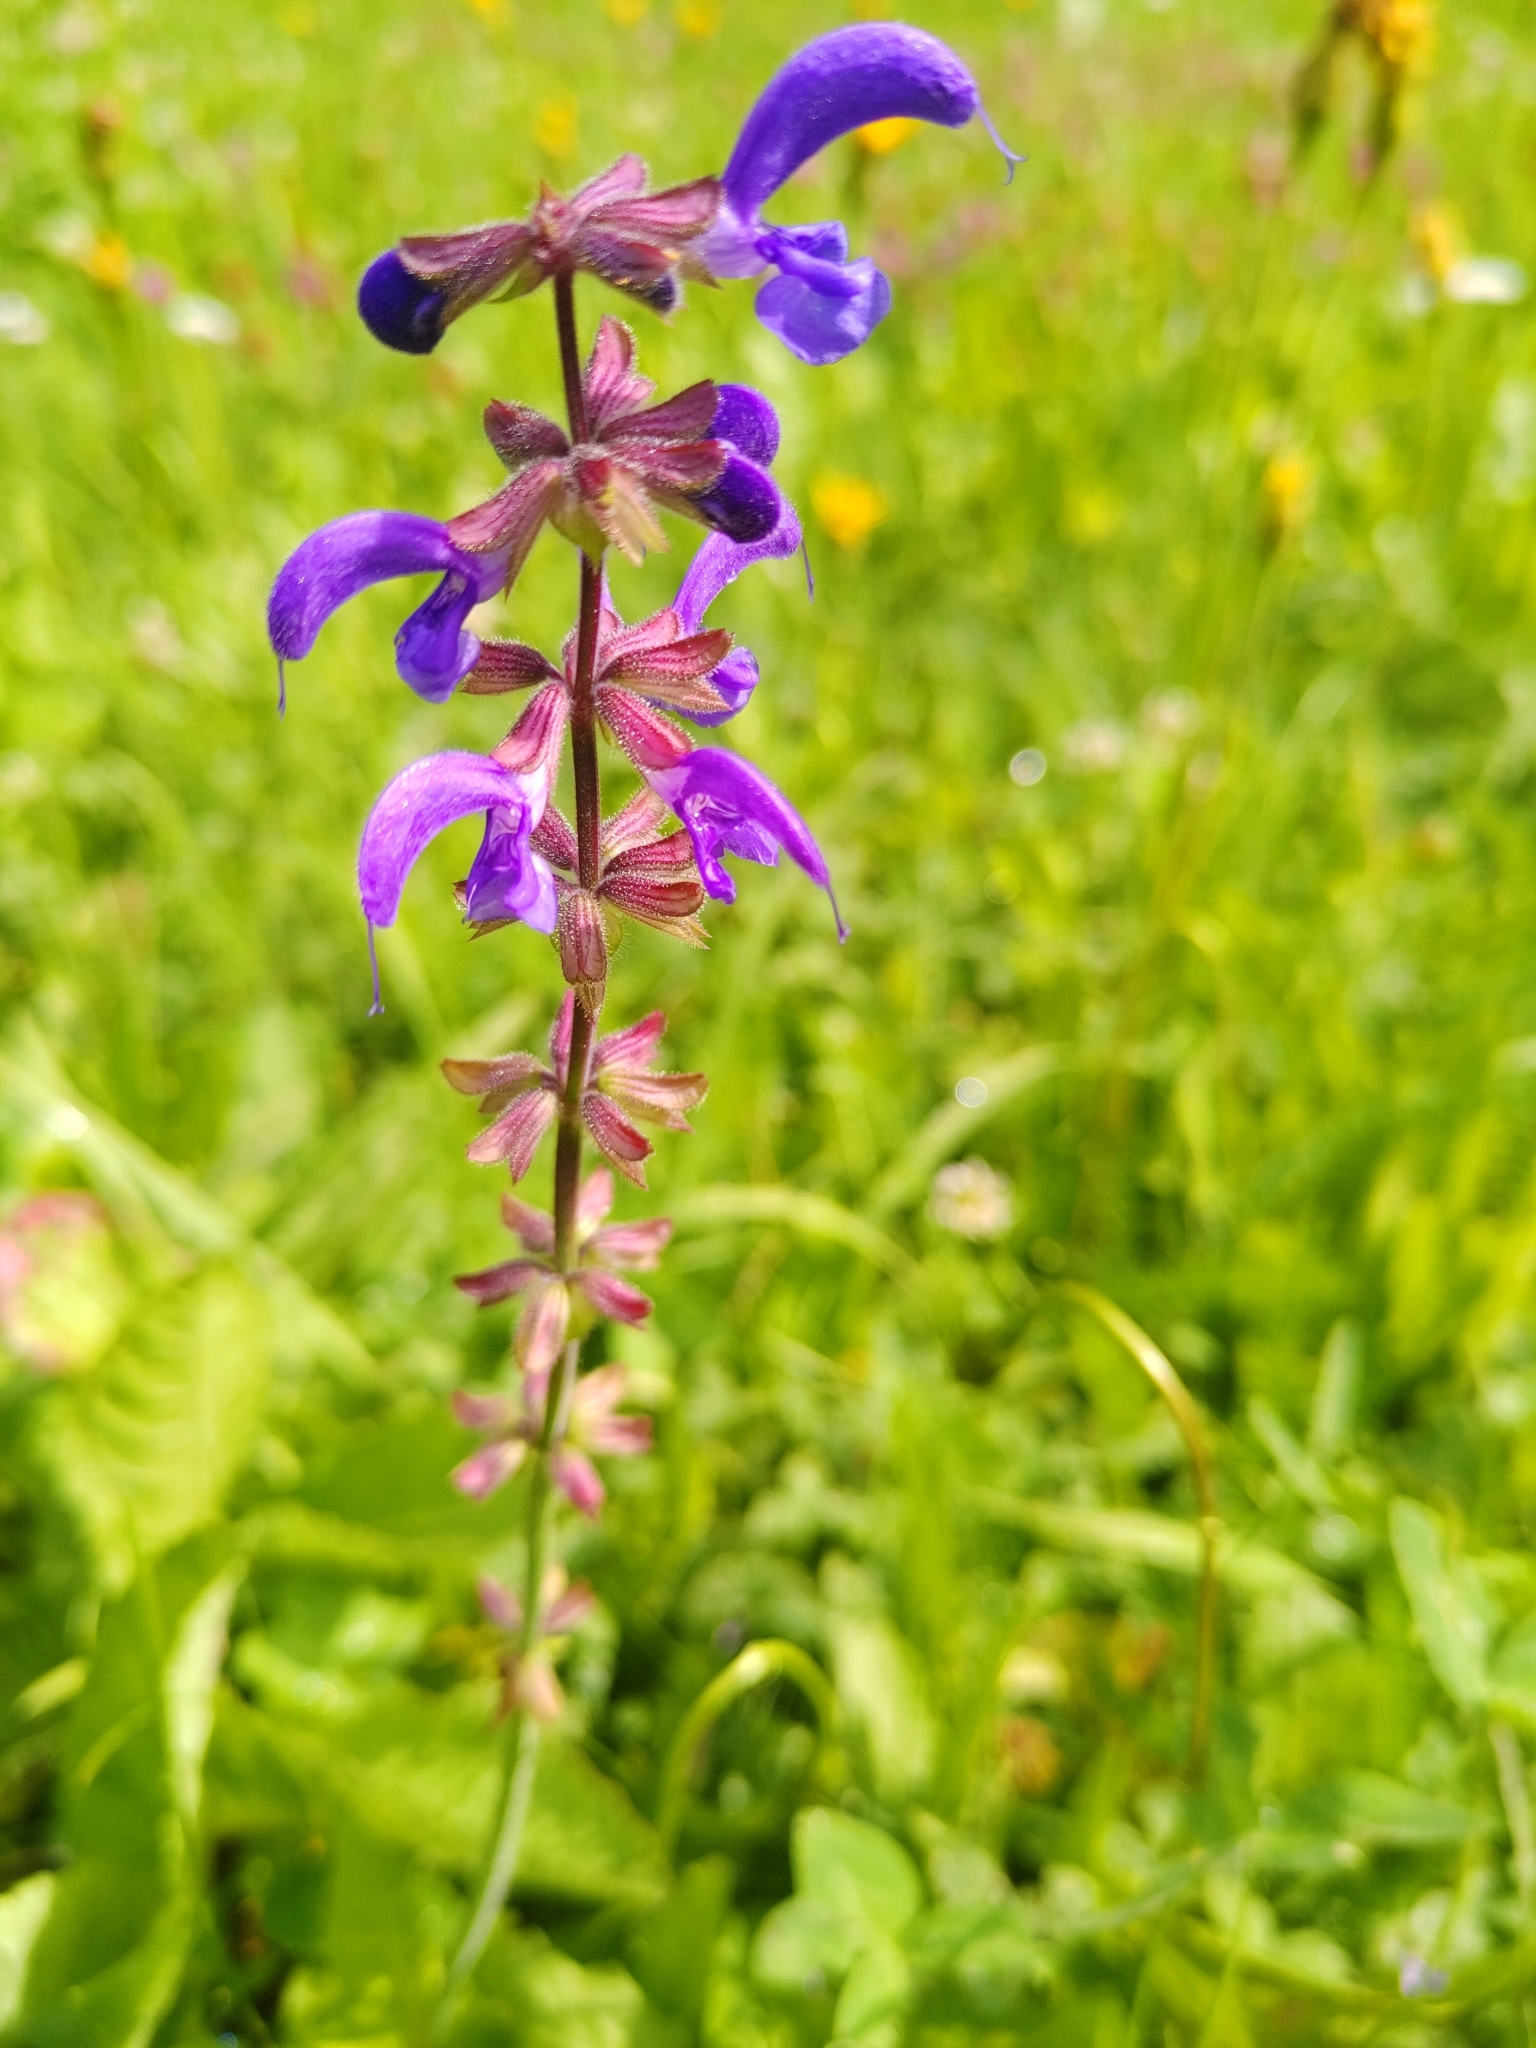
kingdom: Plantae
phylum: Tracheophyta
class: Magnoliopsida
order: Lamiales
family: Lamiaceae
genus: Salvia
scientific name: Salvia pratensis
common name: Meadow sage
